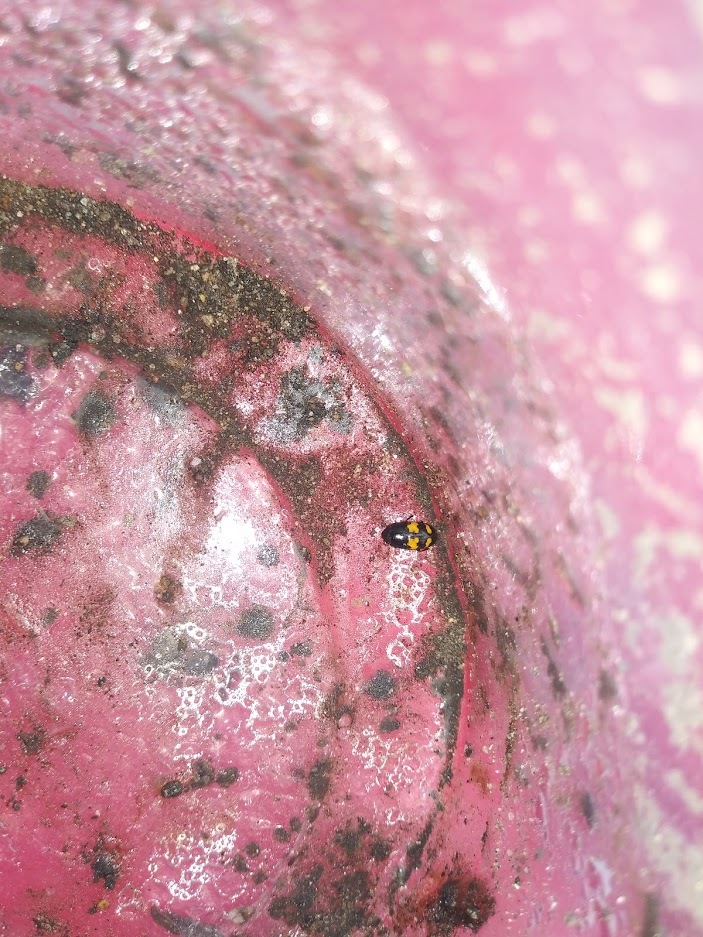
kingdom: Animalia
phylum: Arthropoda
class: Insecta
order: Coleoptera
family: Nitidulidae
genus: Glischrochilus
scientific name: Glischrochilus fasciatus
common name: Picnic beetle
